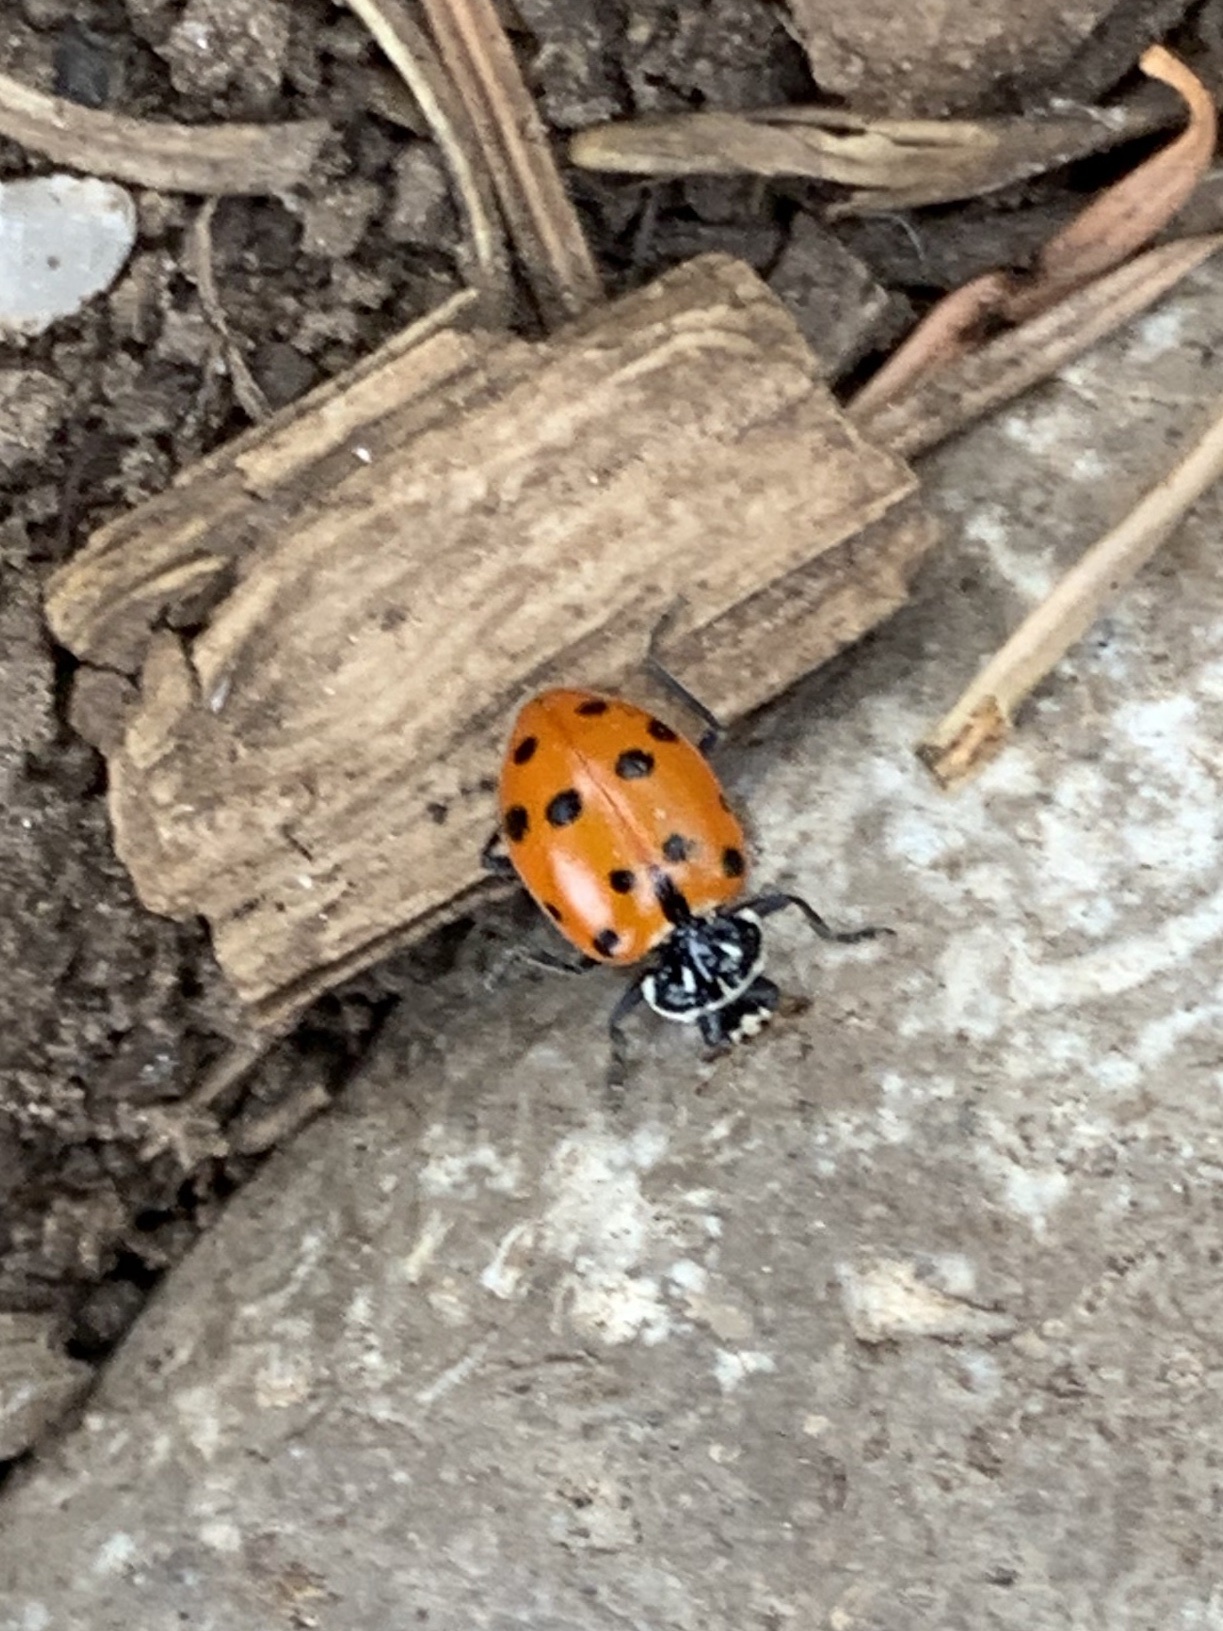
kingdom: Animalia
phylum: Arthropoda
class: Insecta
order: Coleoptera
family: Coccinellidae
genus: Hippodamia
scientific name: Hippodamia convergens
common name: Convergent lady beetle
